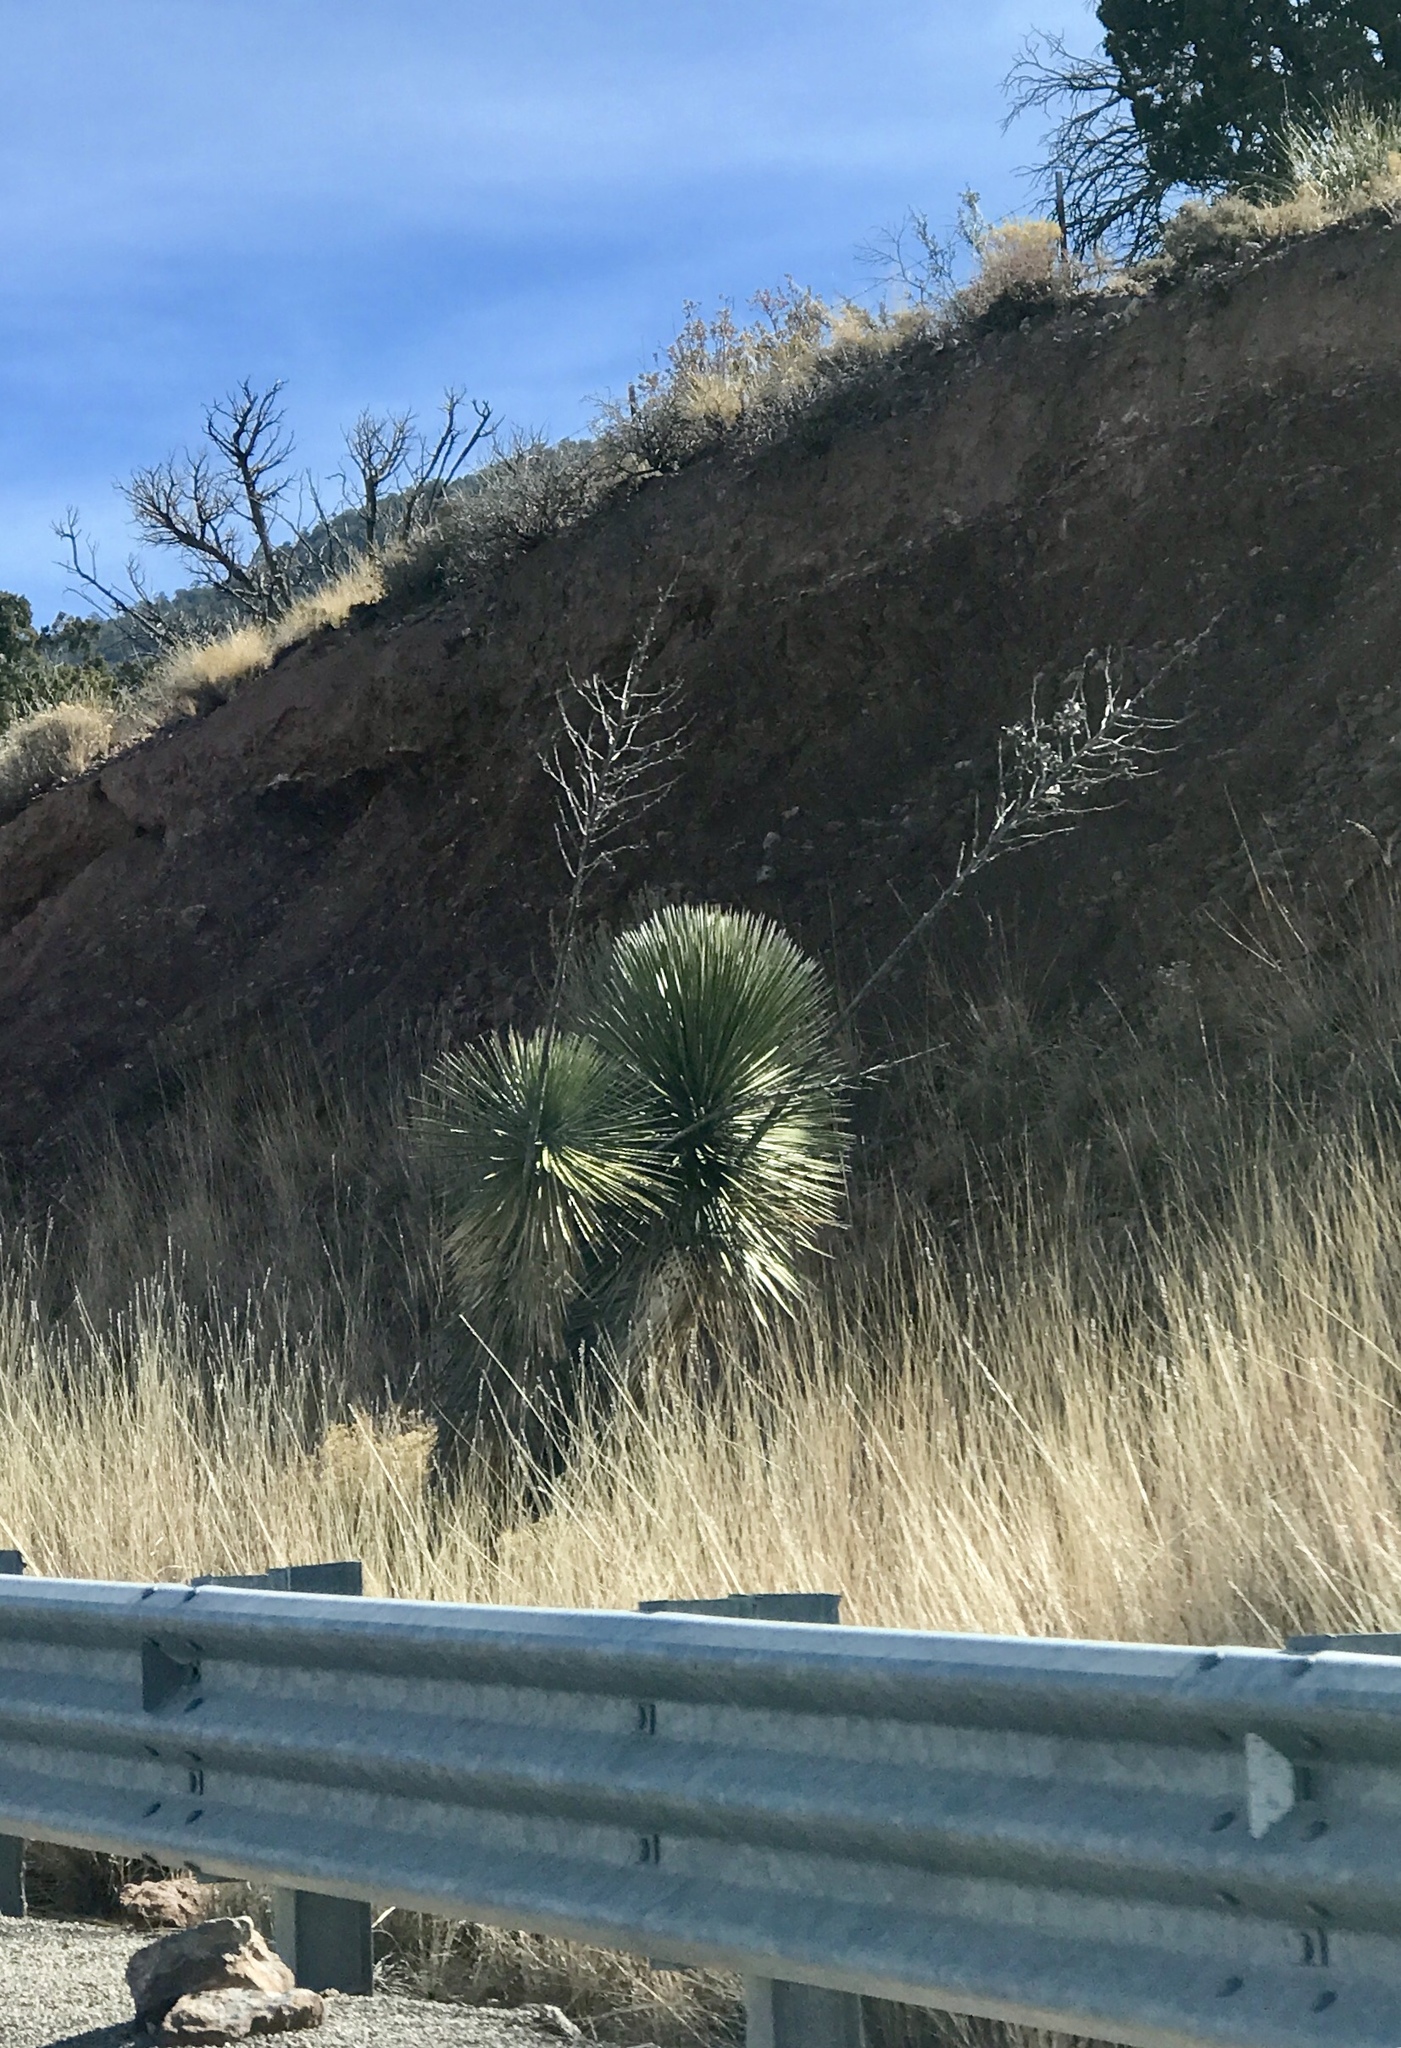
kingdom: Plantae
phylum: Tracheophyta
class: Liliopsida
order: Asparagales
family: Asparagaceae
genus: Yucca
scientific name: Yucca elata
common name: Palmella
